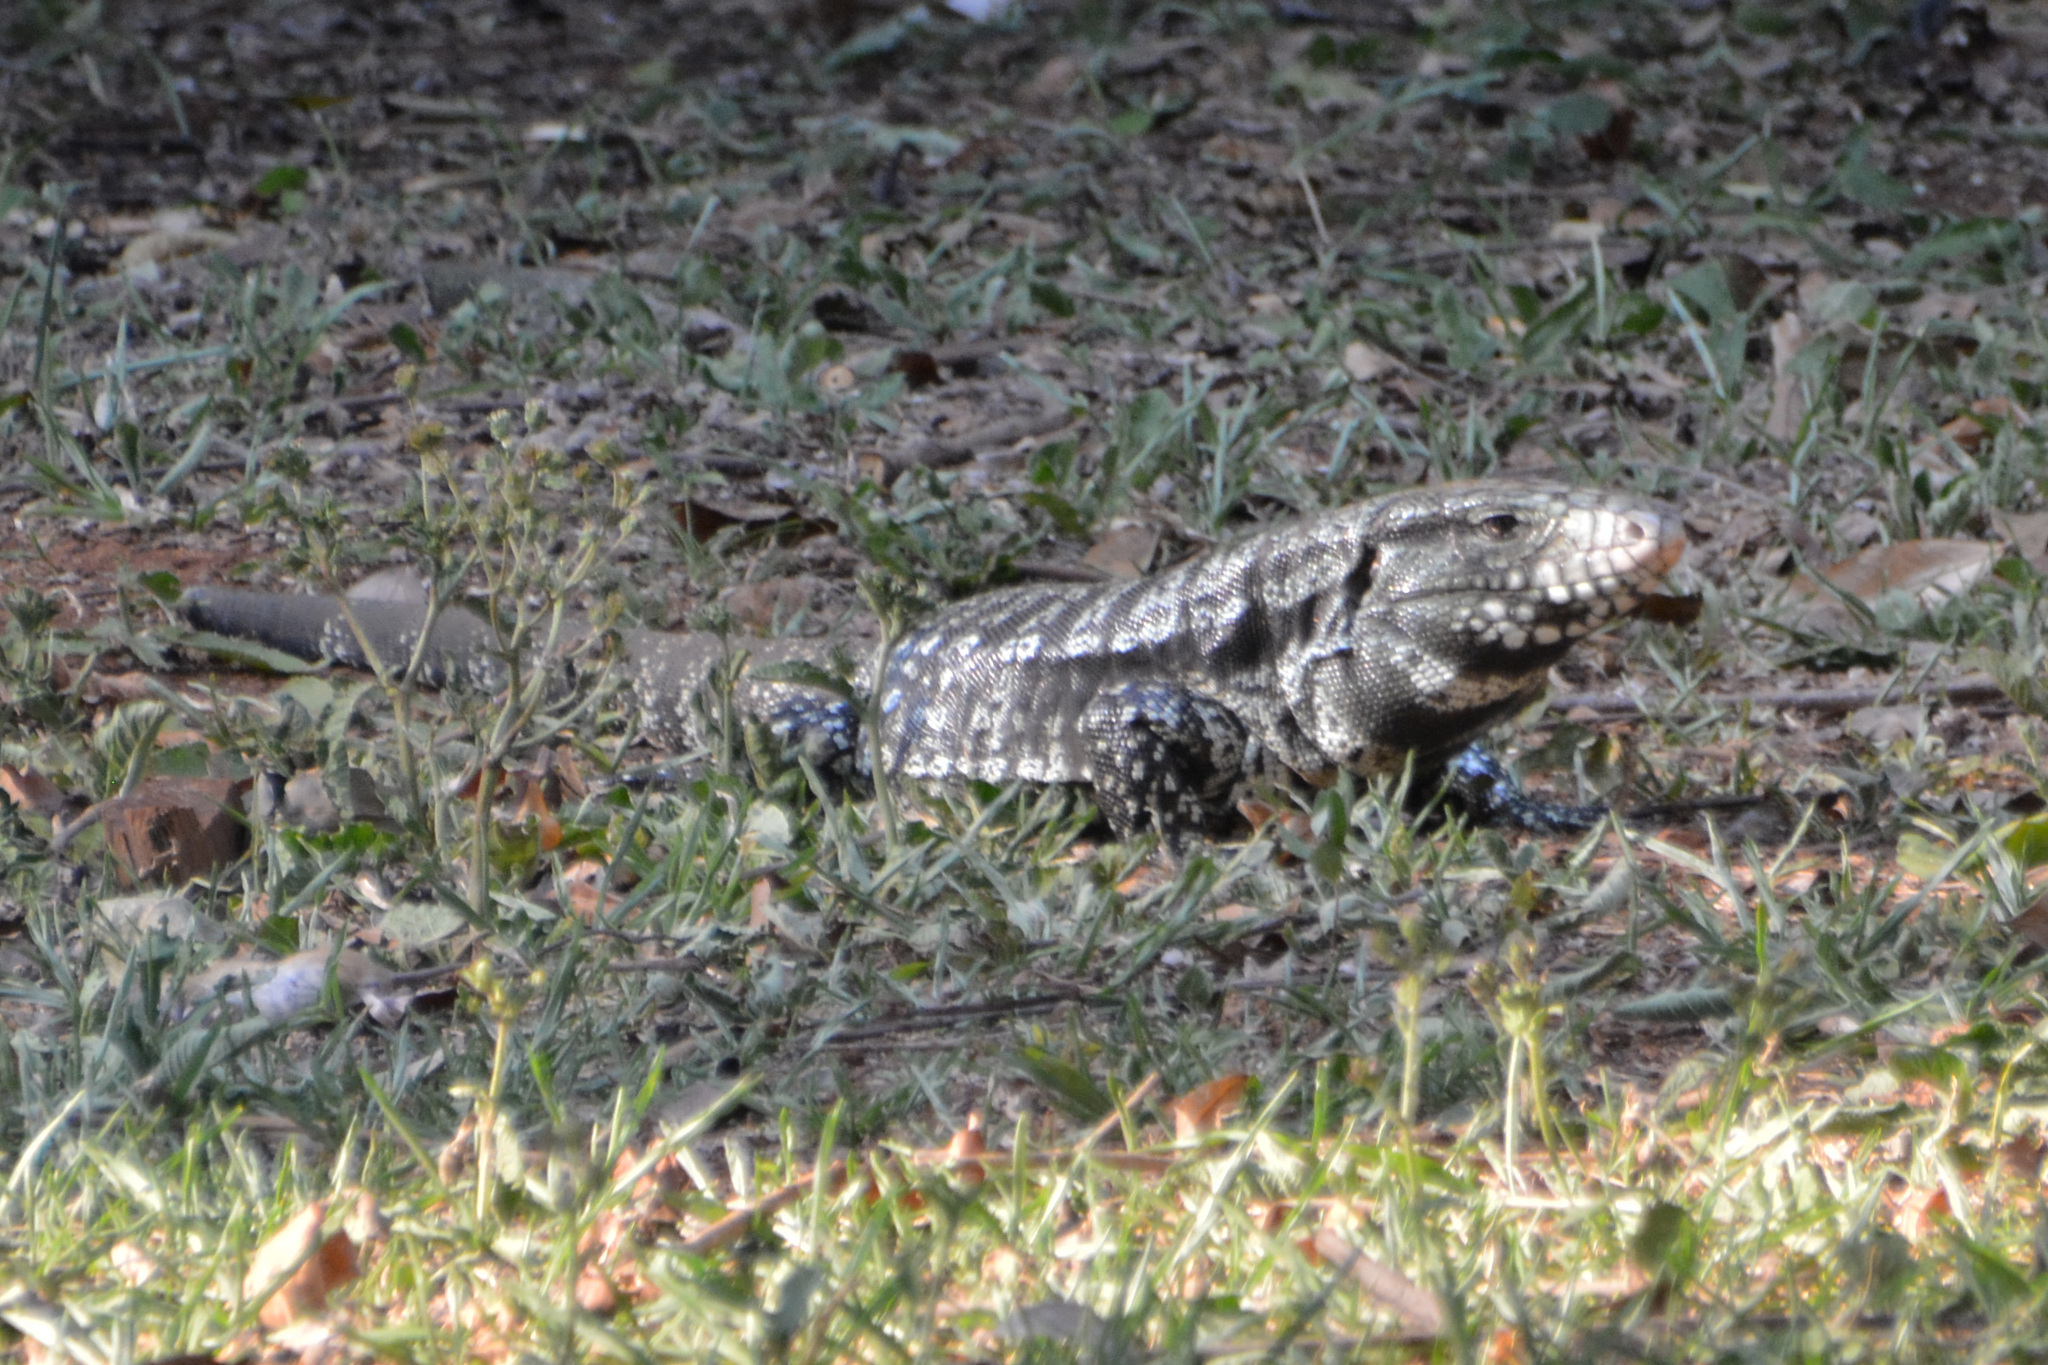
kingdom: Animalia
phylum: Chordata
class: Squamata
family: Teiidae
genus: Salvator
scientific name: Salvator merianae
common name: Argentine black and white tegu
